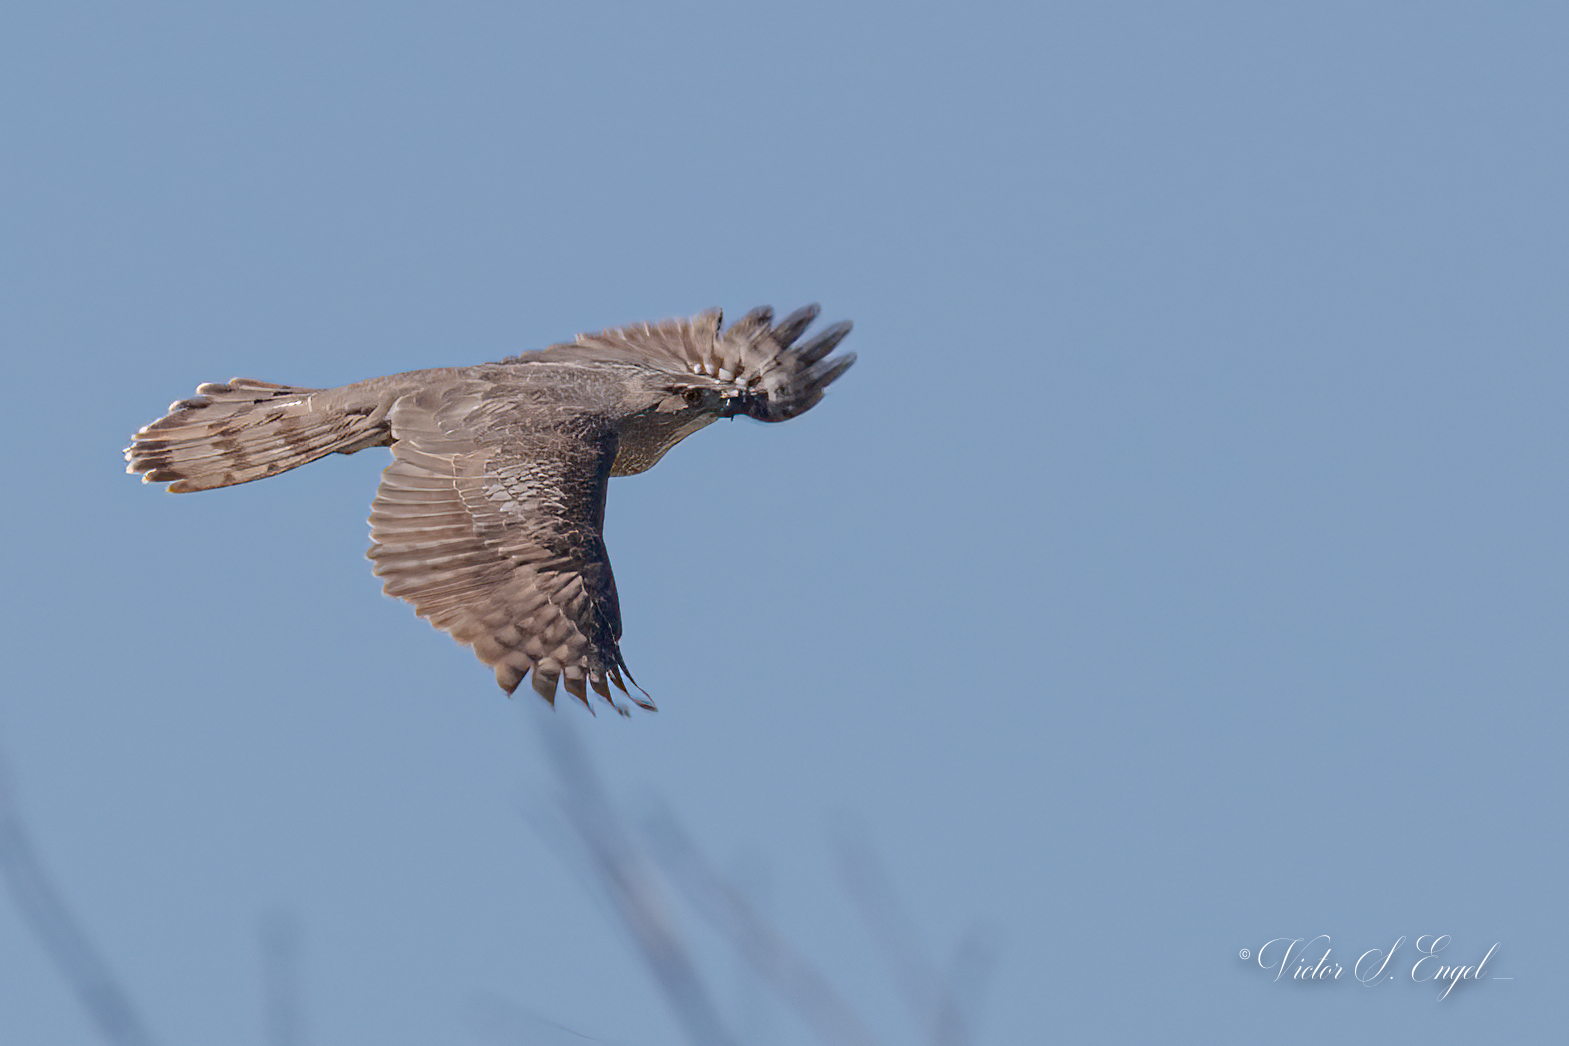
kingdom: Animalia
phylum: Chordata
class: Aves
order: Accipitriformes
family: Accipitridae
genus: Accipiter
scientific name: Accipiter cooperii
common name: Cooper's hawk
